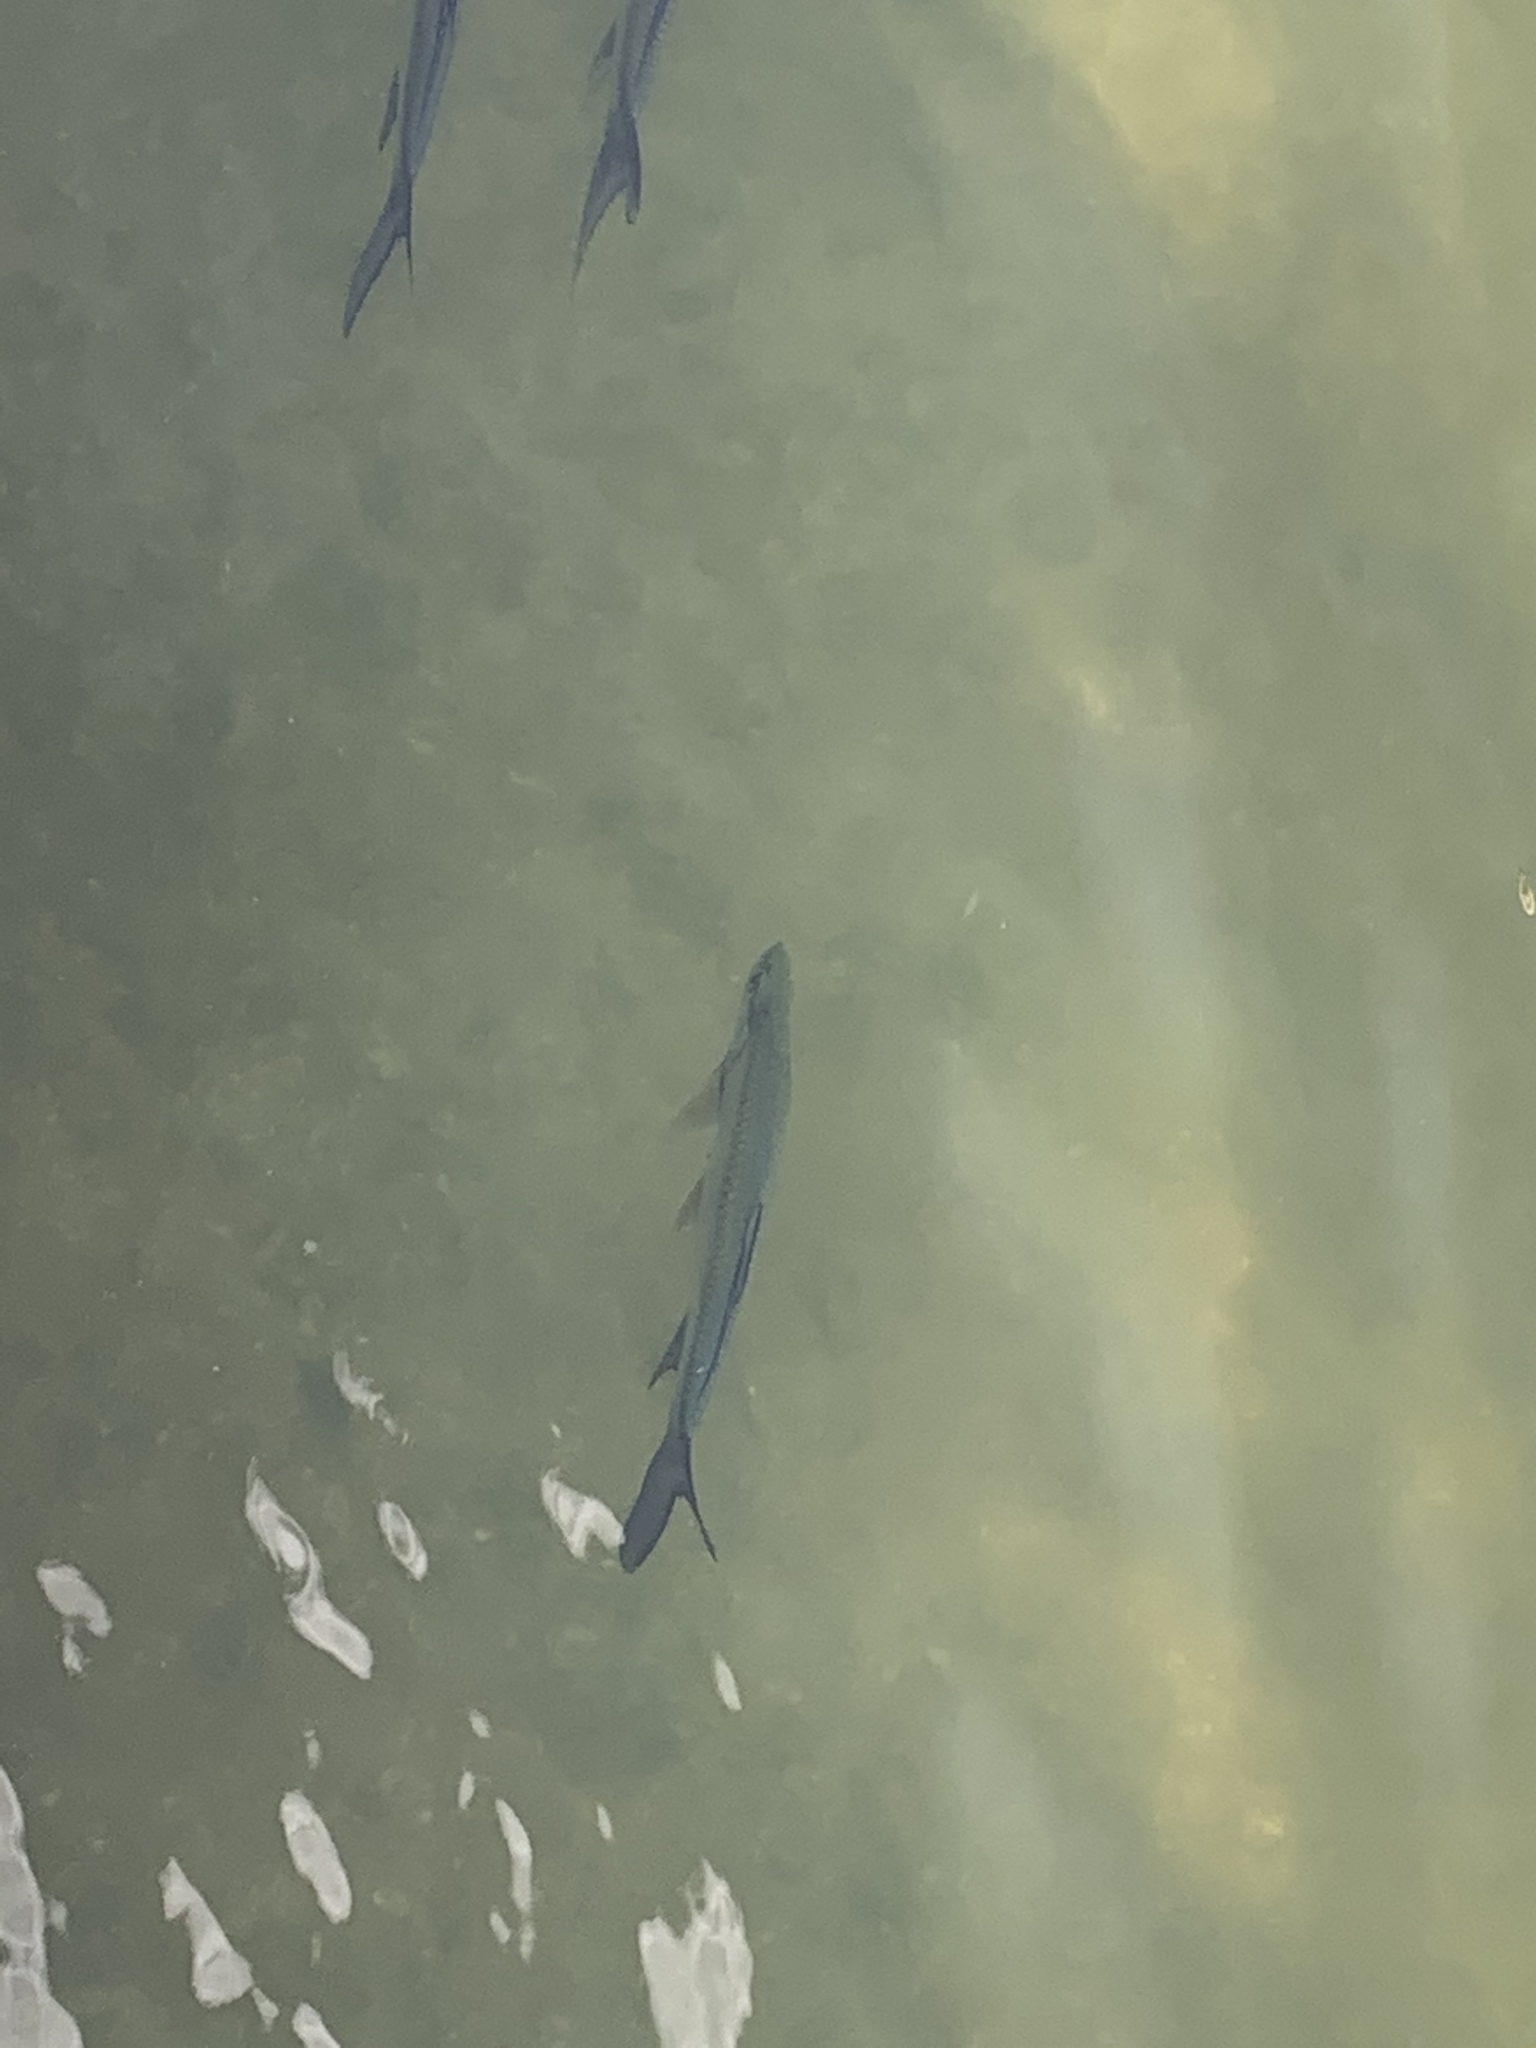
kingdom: Animalia
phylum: Chordata
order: Elopiformes
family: Megalopidae
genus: Megalops
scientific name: Megalops atlanticus
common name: Tarpon
